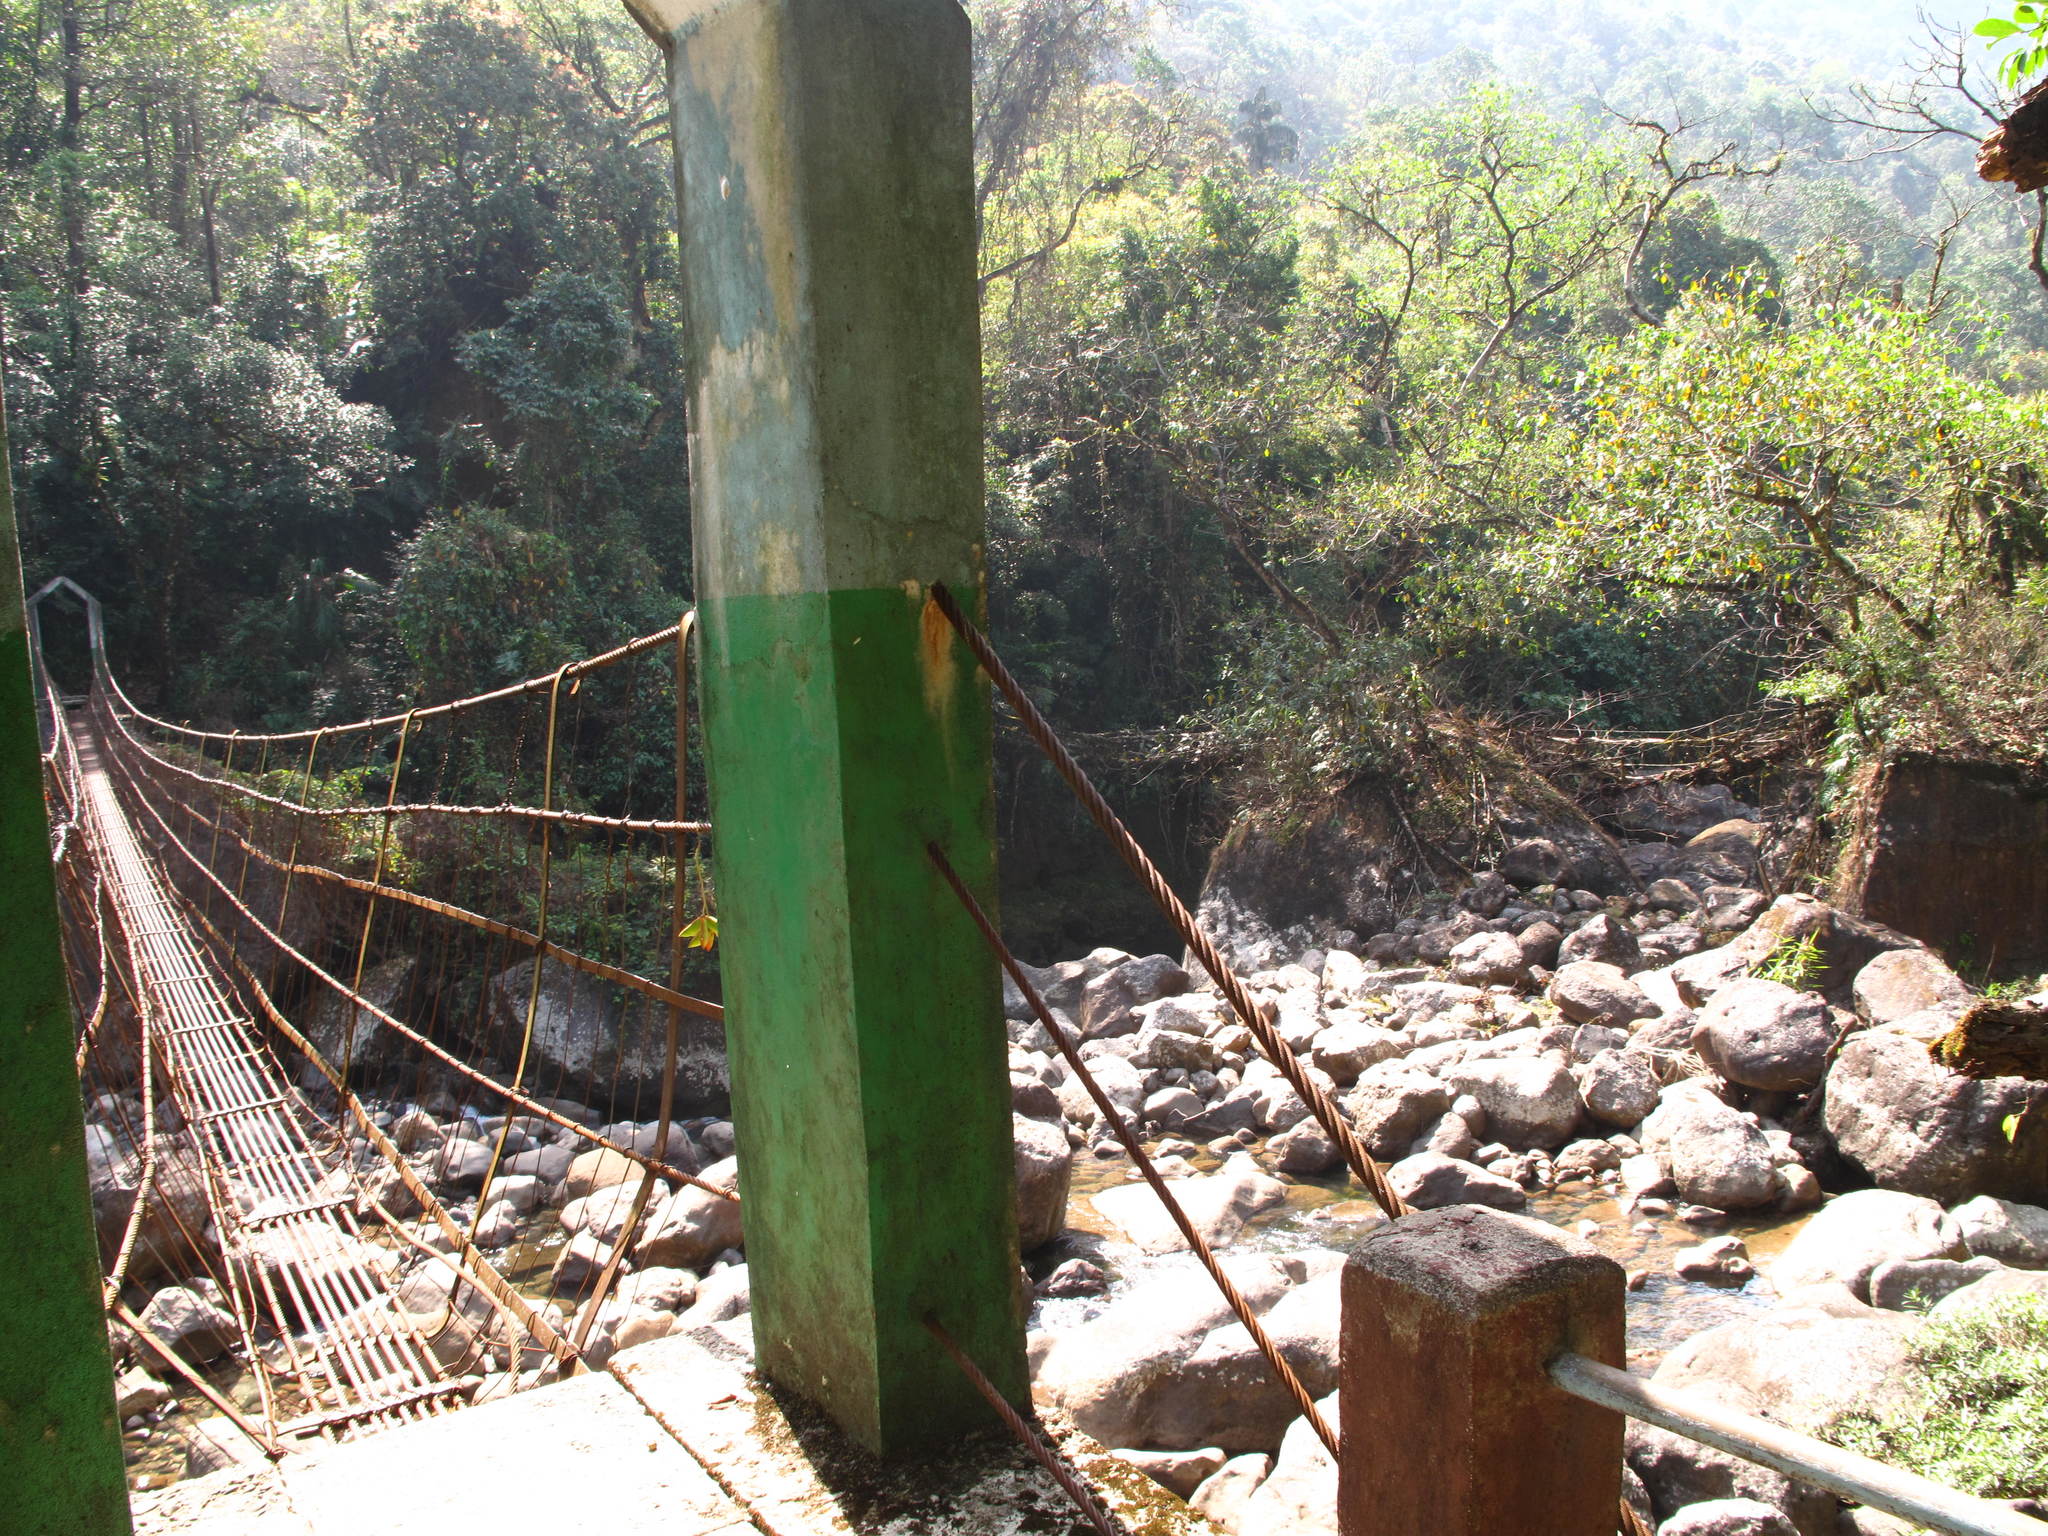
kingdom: Plantae
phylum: Tracheophyta
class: Magnoliopsida
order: Rosales
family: Moraceae
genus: Ficus
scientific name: Ficus elastica
